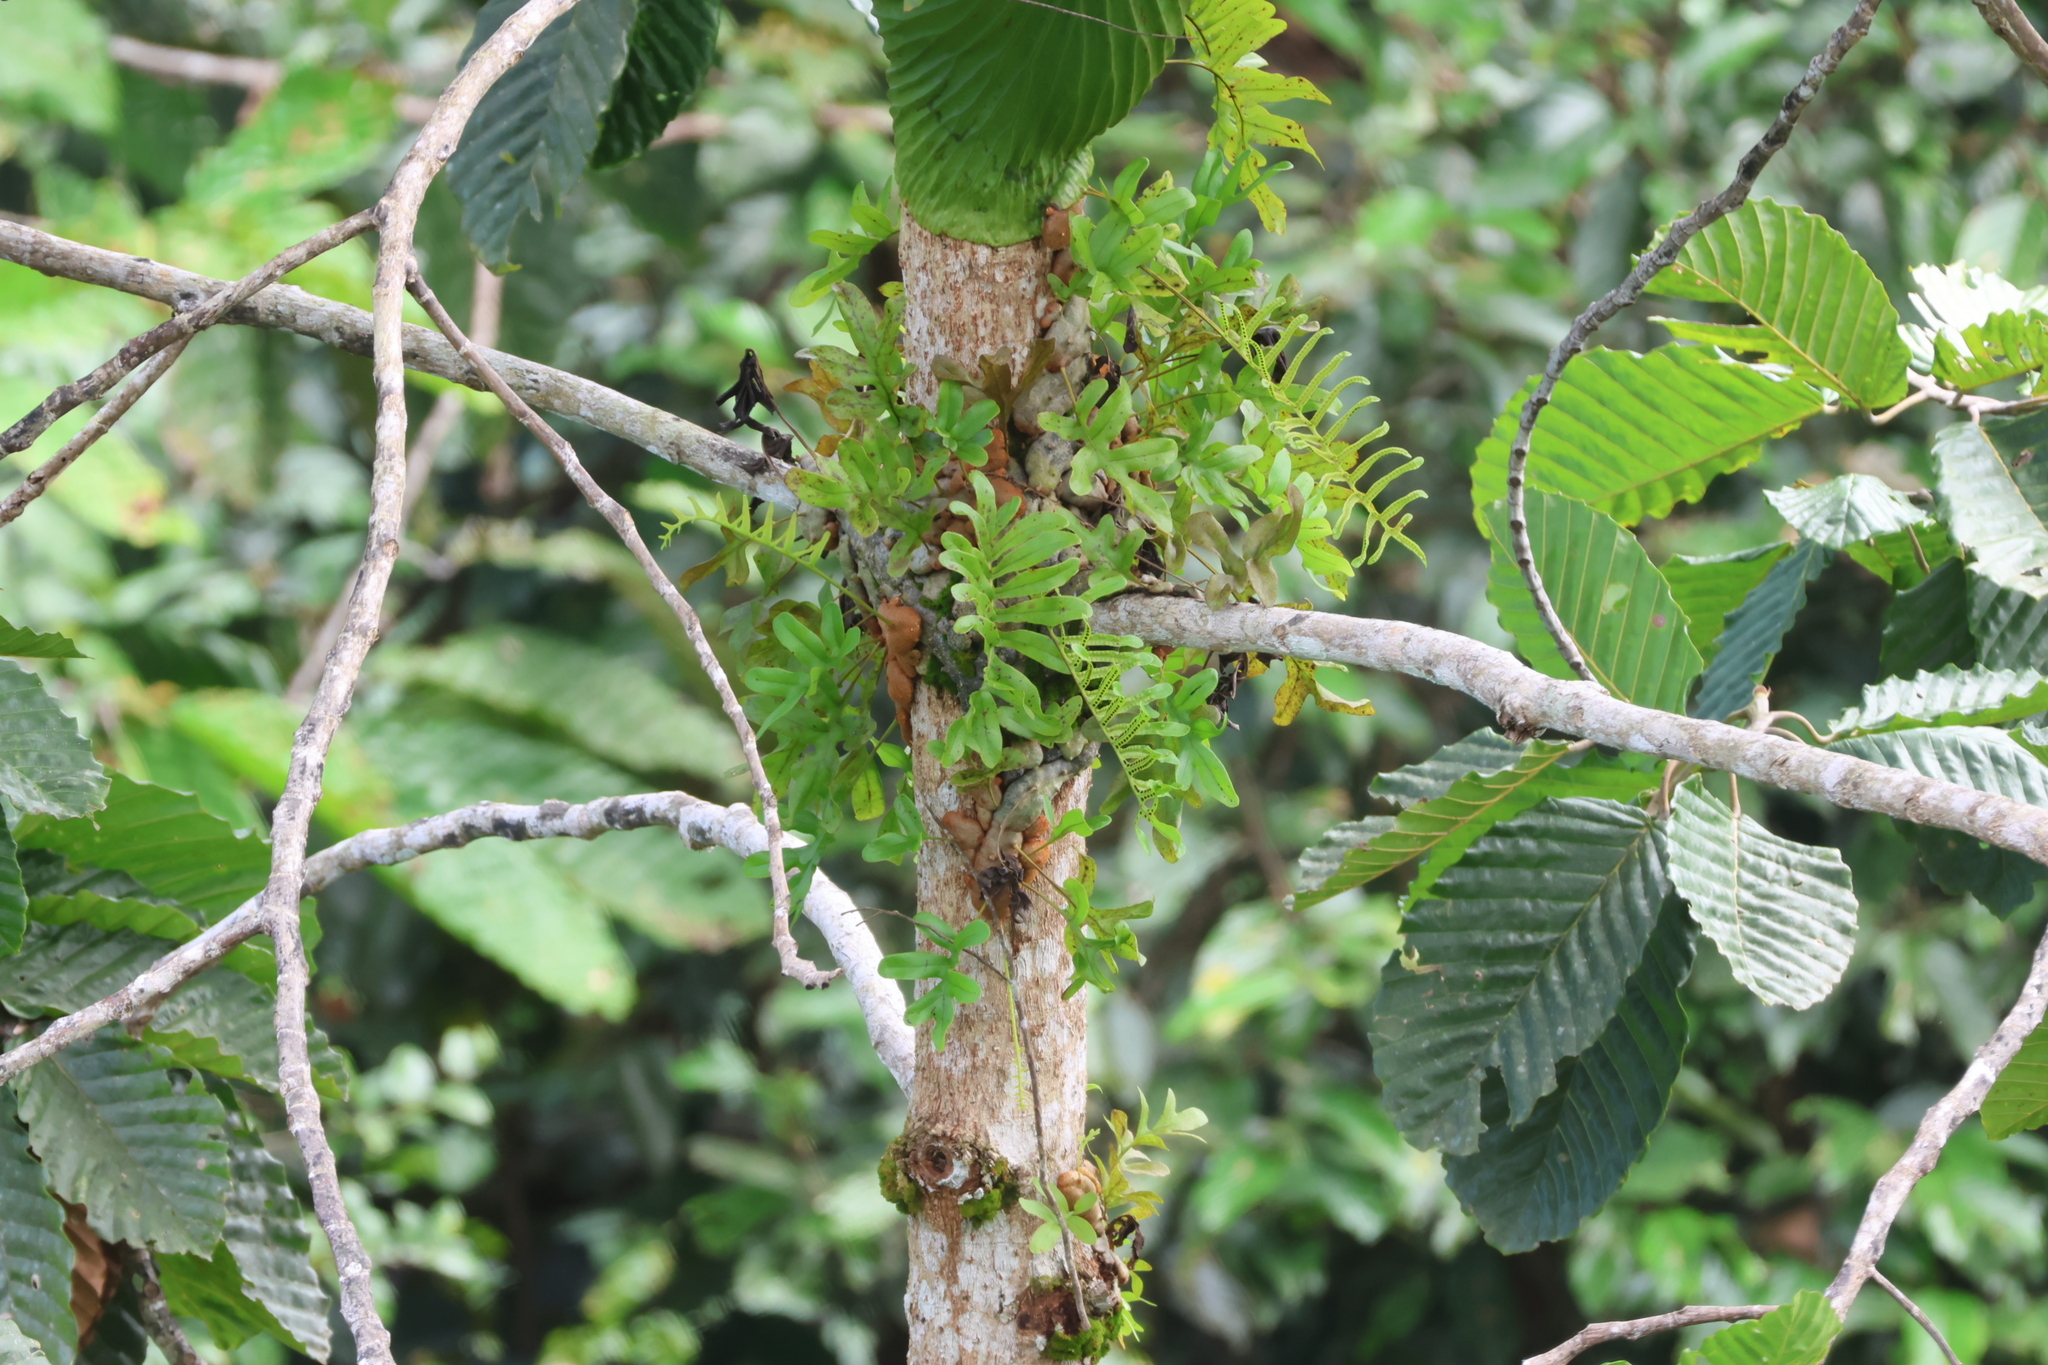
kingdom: Plantae
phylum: Tracheophyta
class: Polypodiopsida
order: Polypodiales
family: Polypodiaceae
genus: Lecanopteris
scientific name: Lecanopteris crustacea
